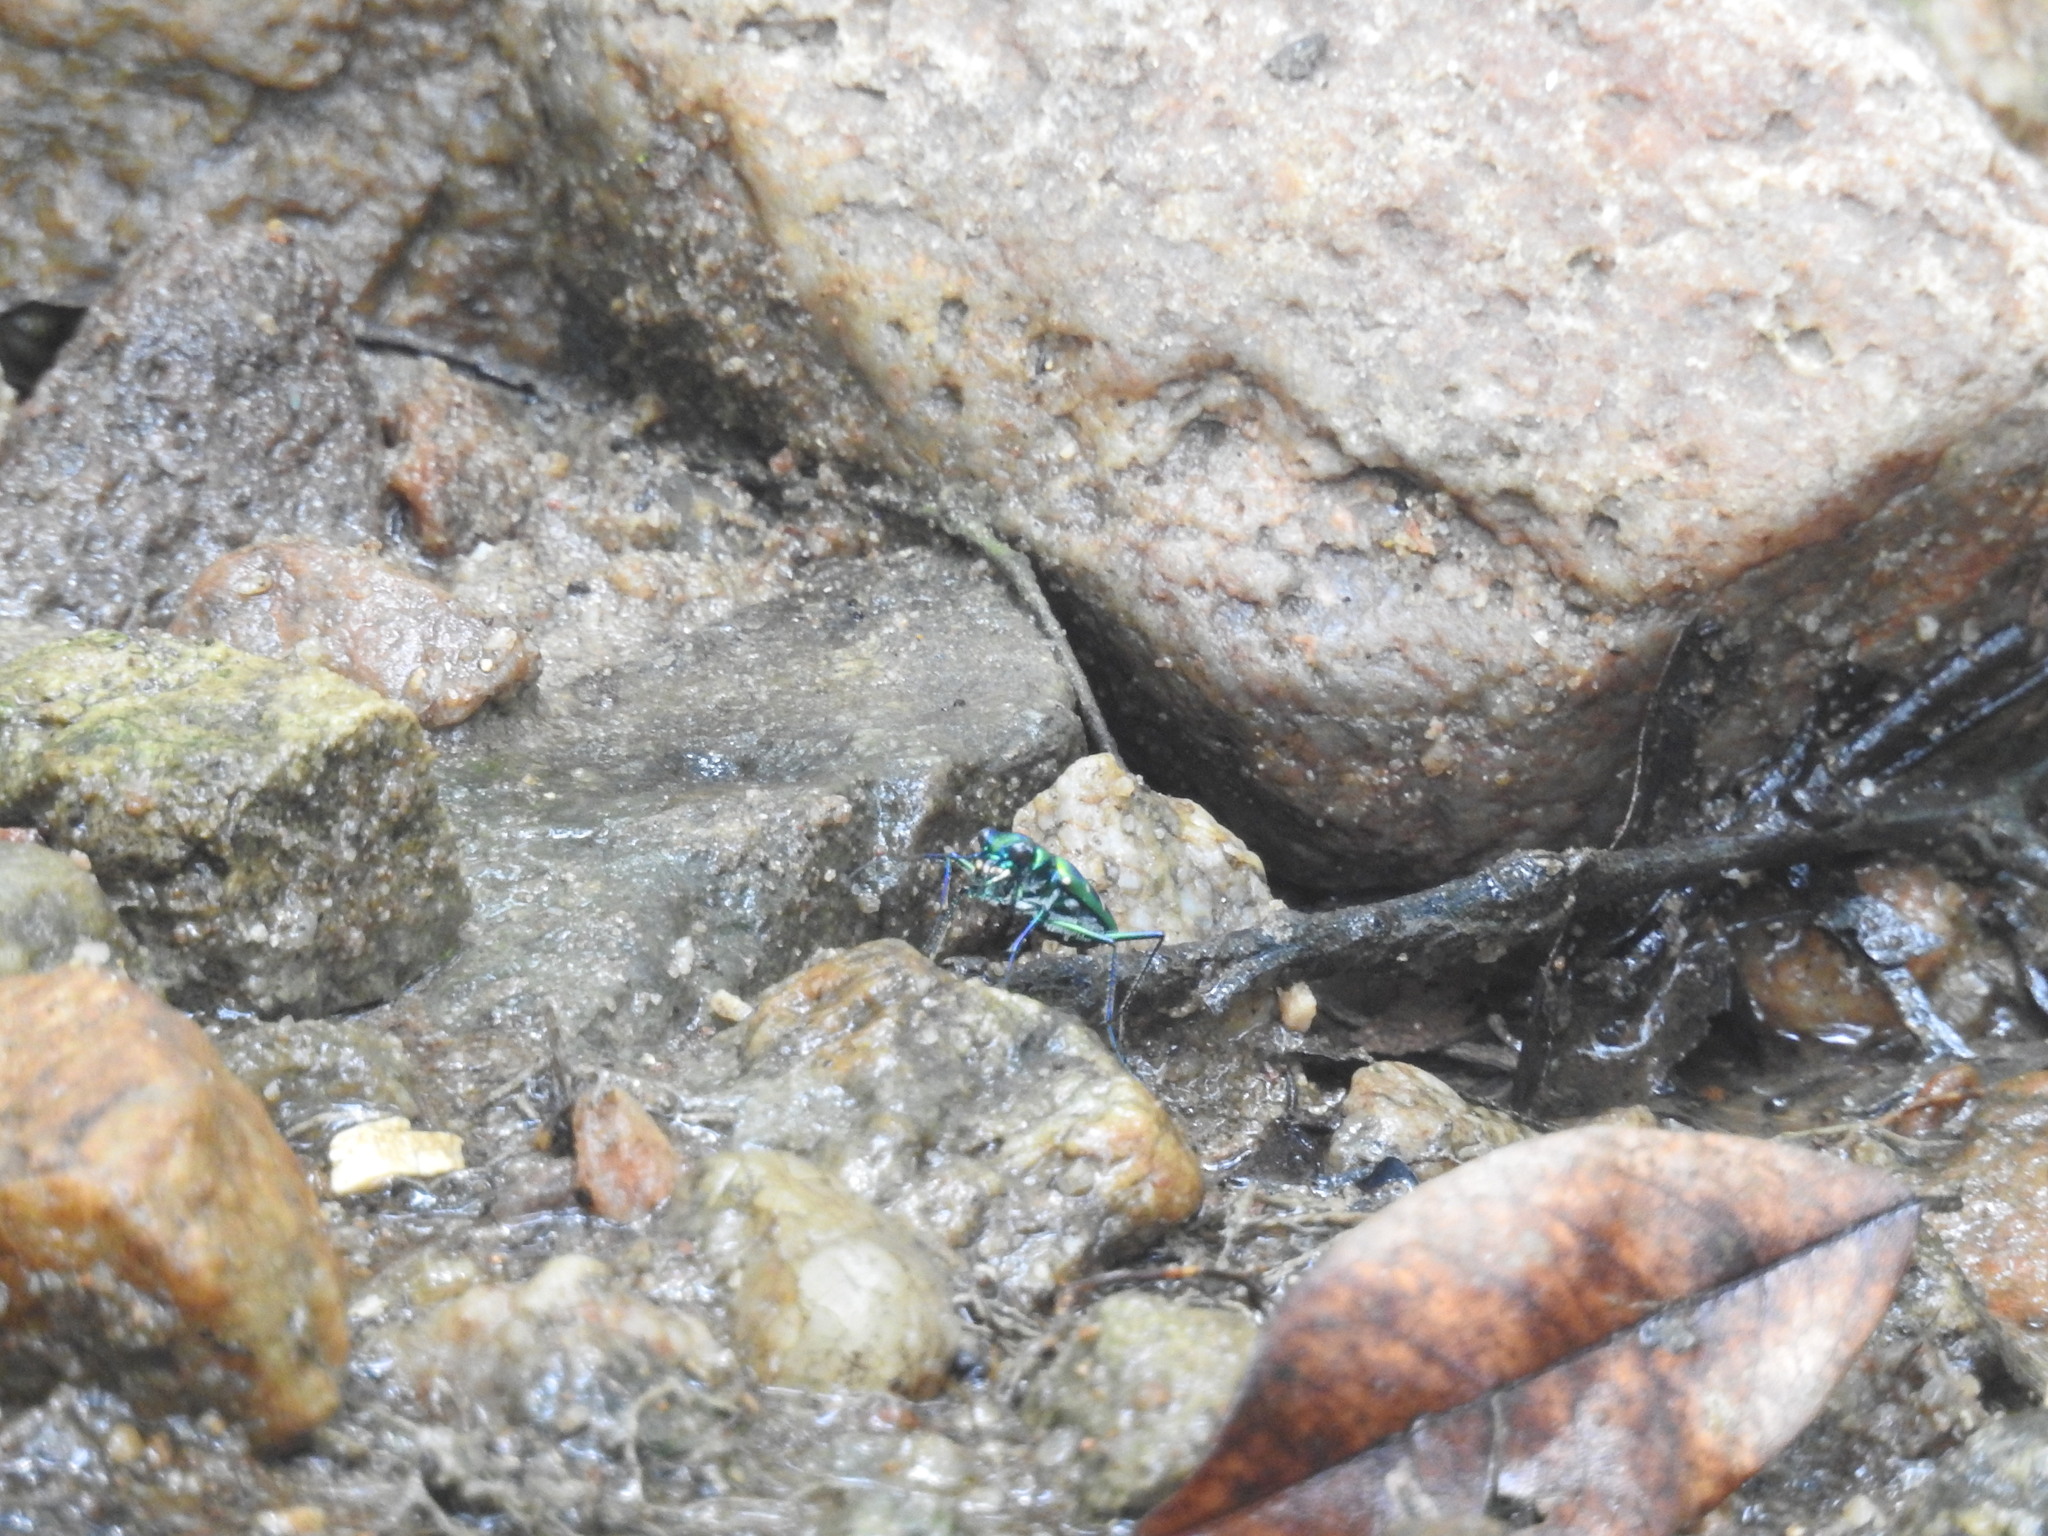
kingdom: Animalia
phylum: Arthropoda
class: Insecta
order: Coleoptera
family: Carabidae
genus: Cicindela
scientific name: Cicindela barmanica
